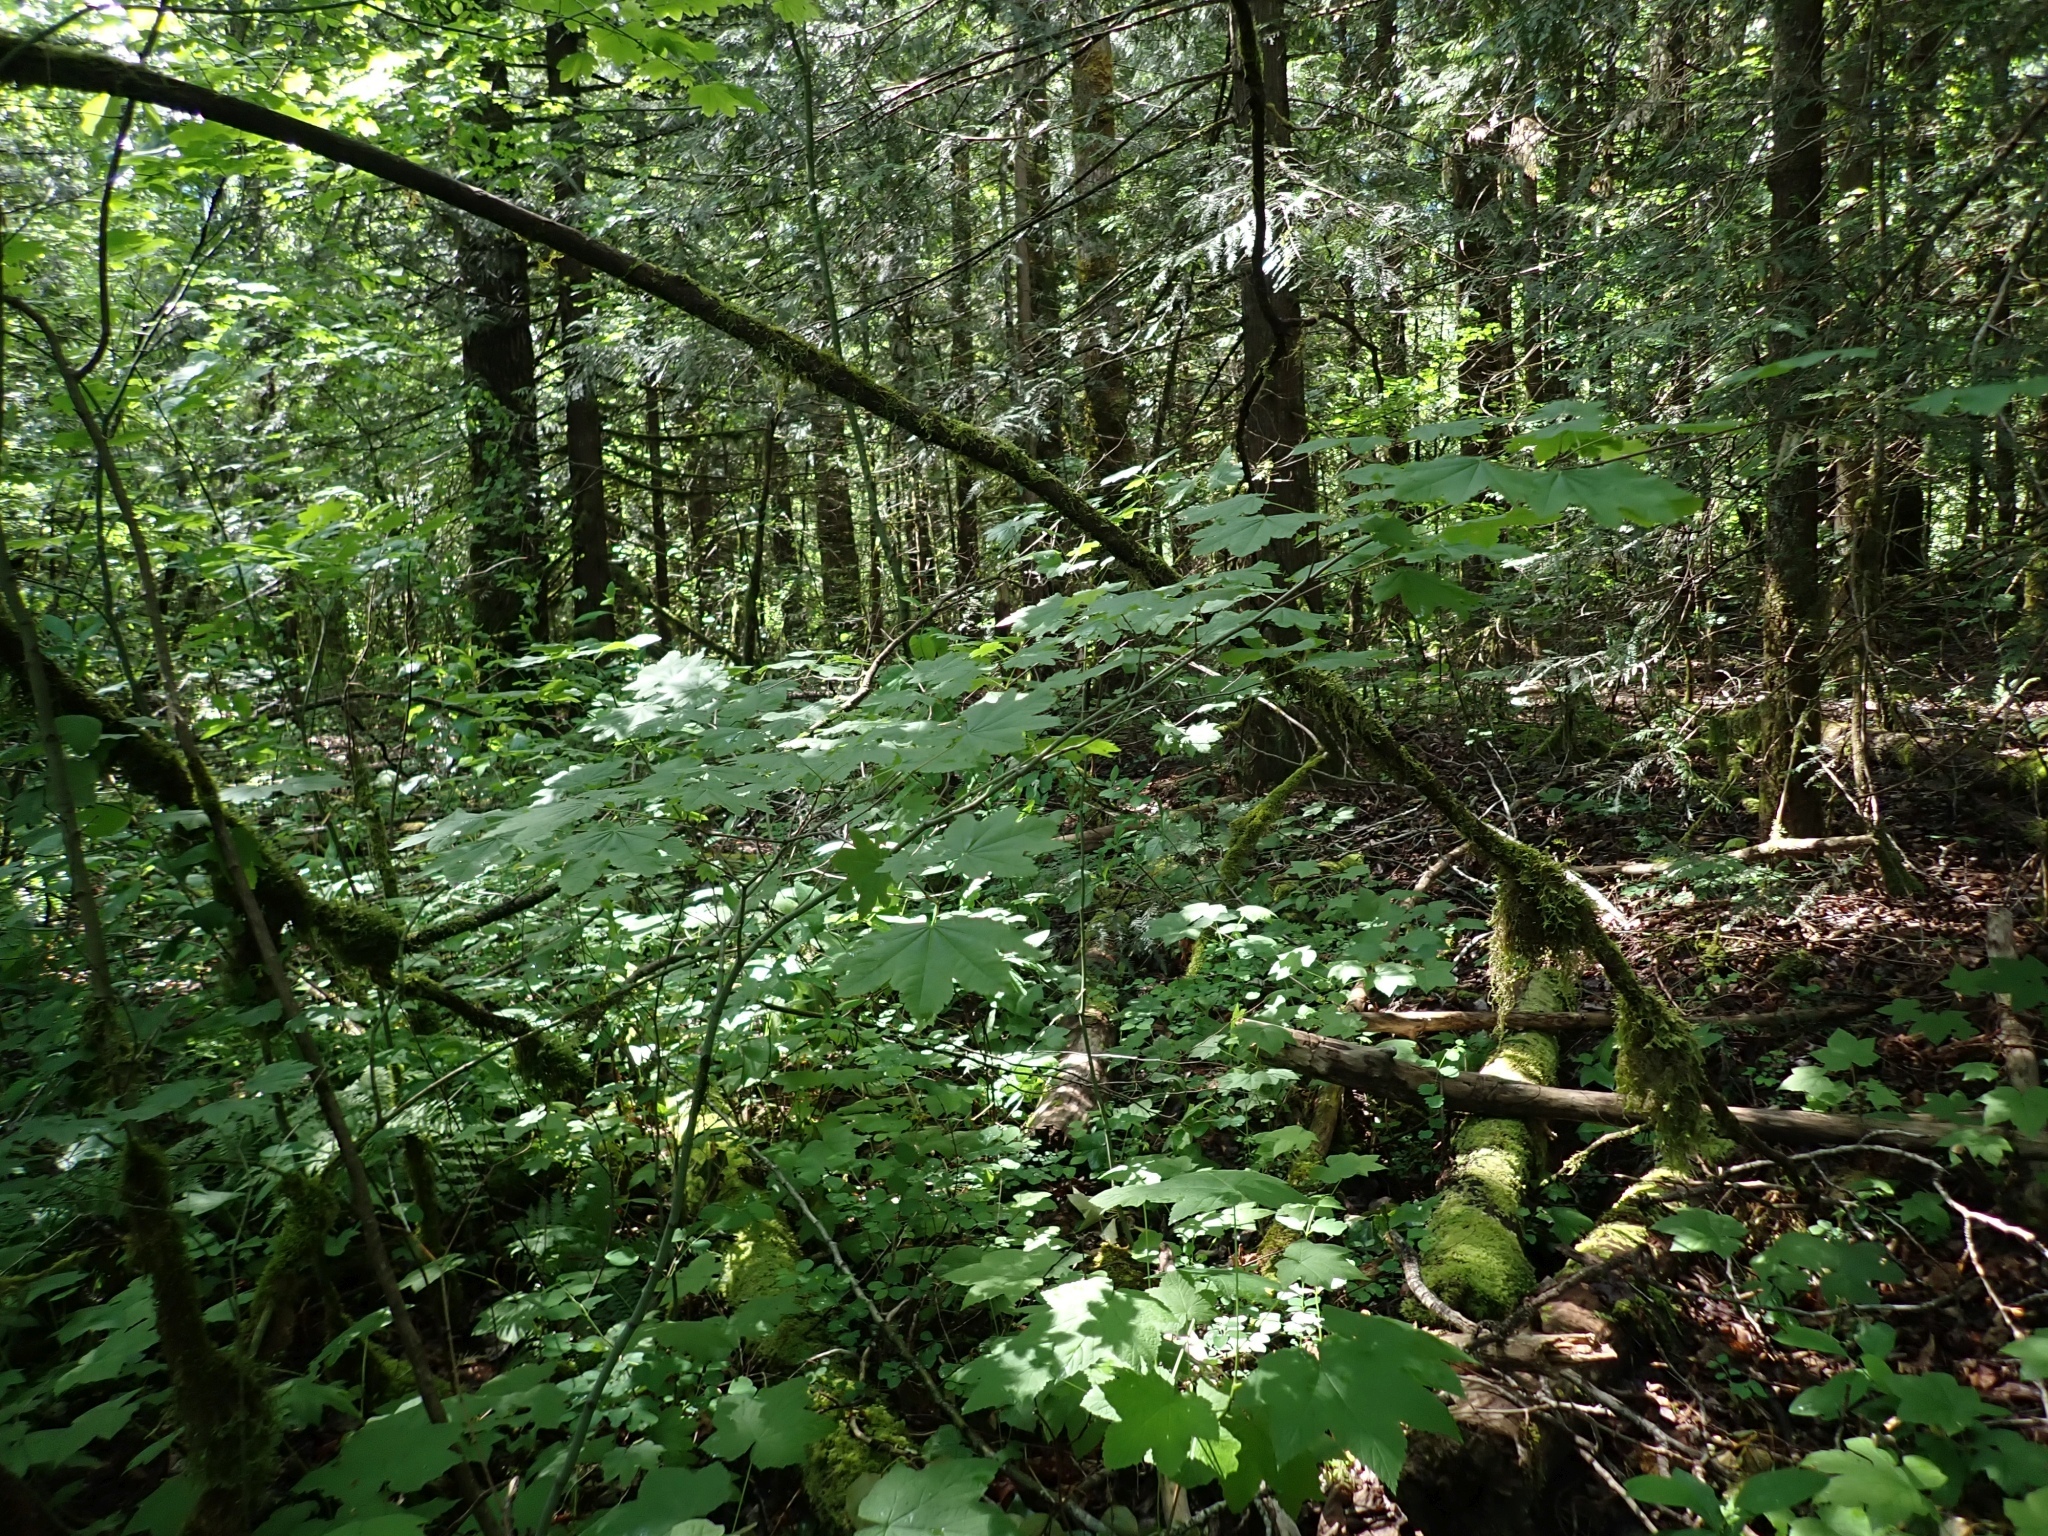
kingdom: Plantae
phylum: Tracheophyta
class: Magnoliopsida
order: Sapindales
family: Sapindaceae
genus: Acer
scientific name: Acer circinatum
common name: Vine maple
